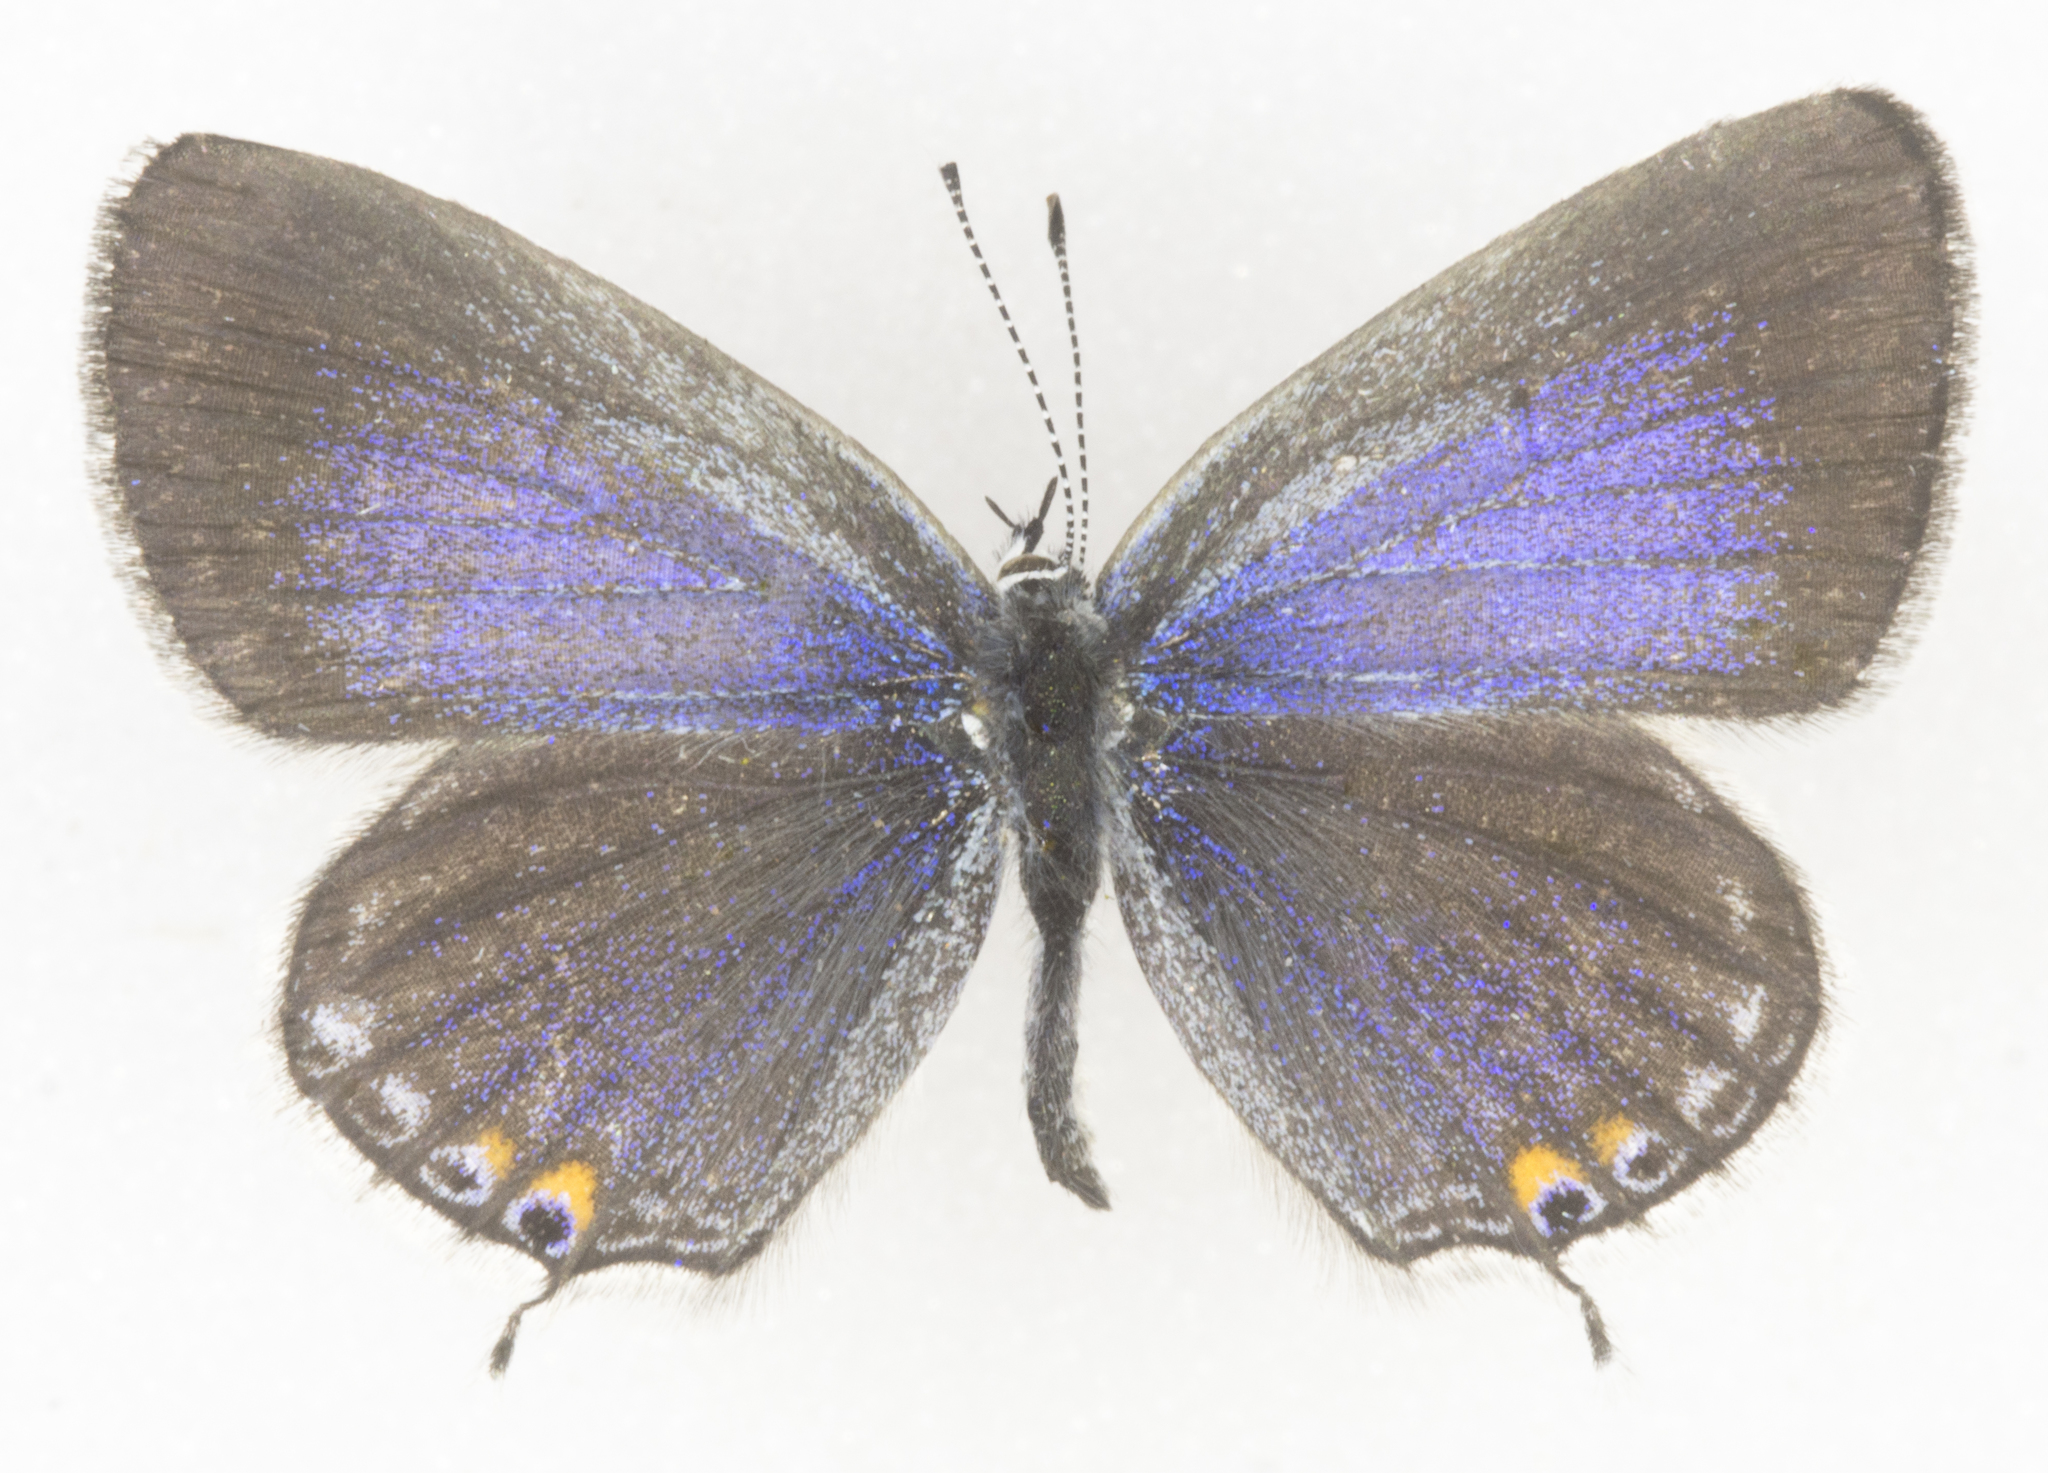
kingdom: Animalia
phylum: Arthropoda
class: Insecta
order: Lepidoptera
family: Lycaenidae
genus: Elkalyce
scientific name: Elkalyce amyntula
